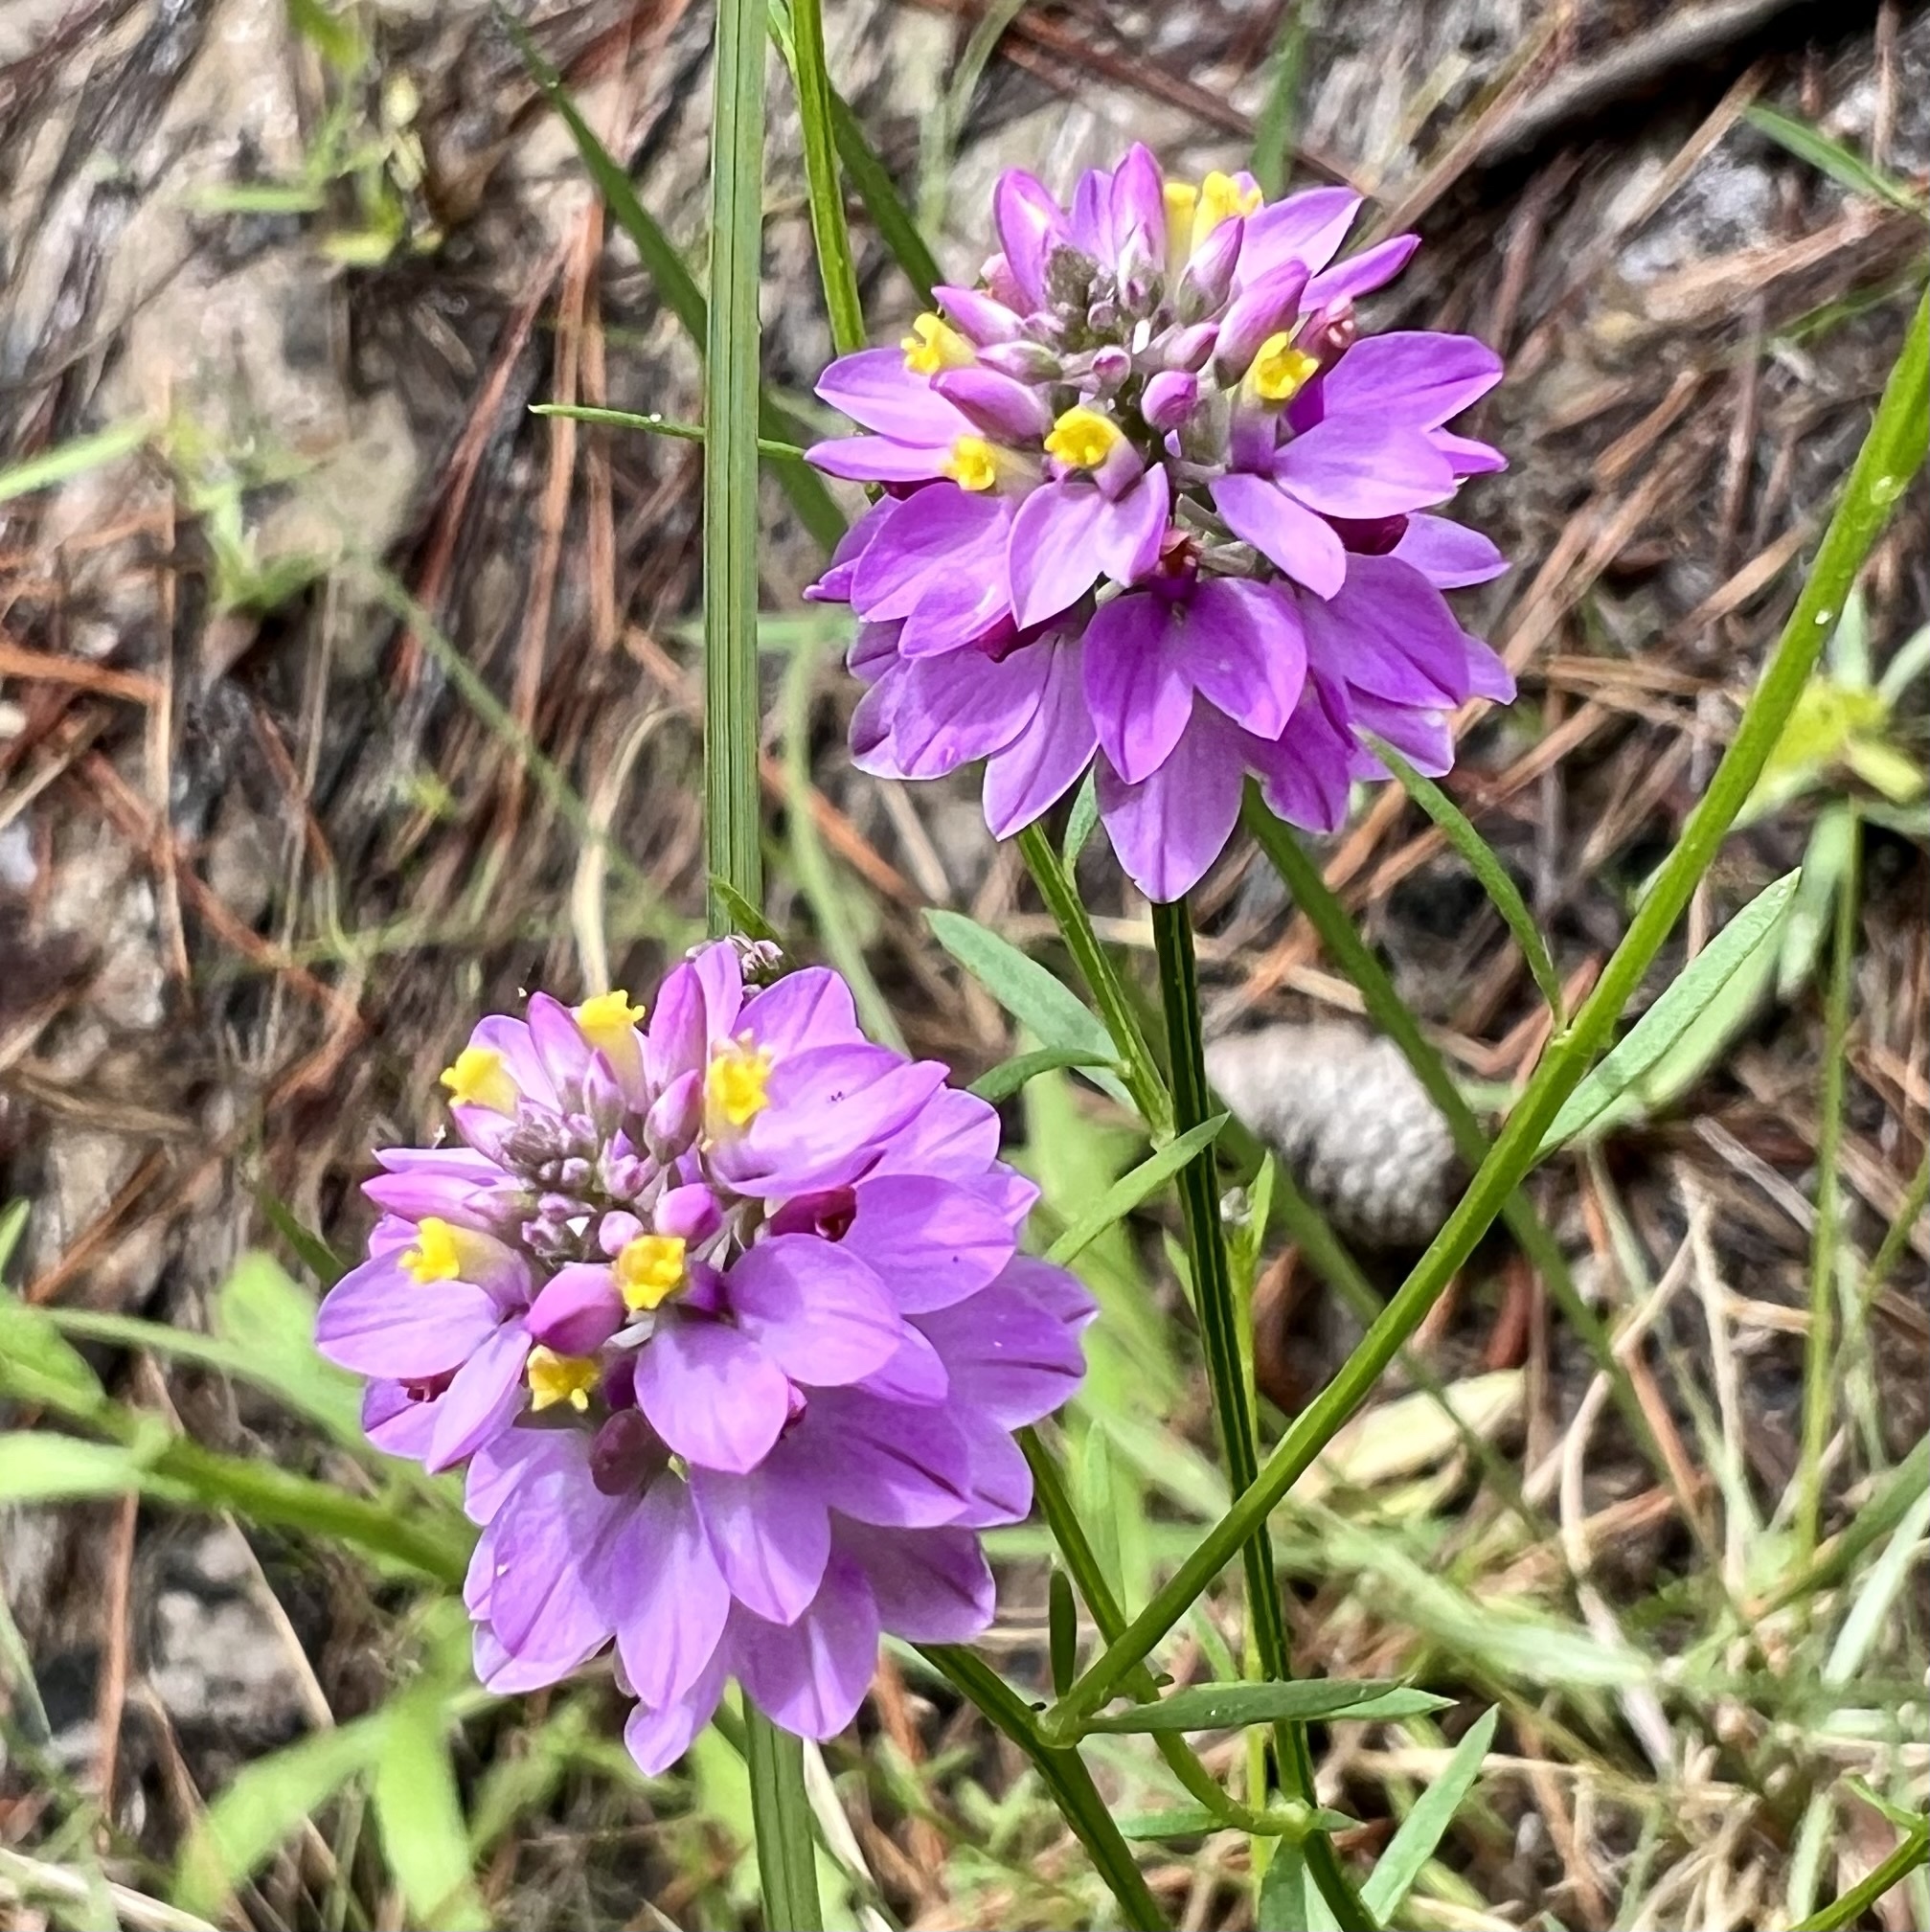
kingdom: Plantae
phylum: Tracheophyta
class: Magnoliopsida
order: Fabales
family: Polygalaceae
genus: Polygala
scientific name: Polygala mariana
